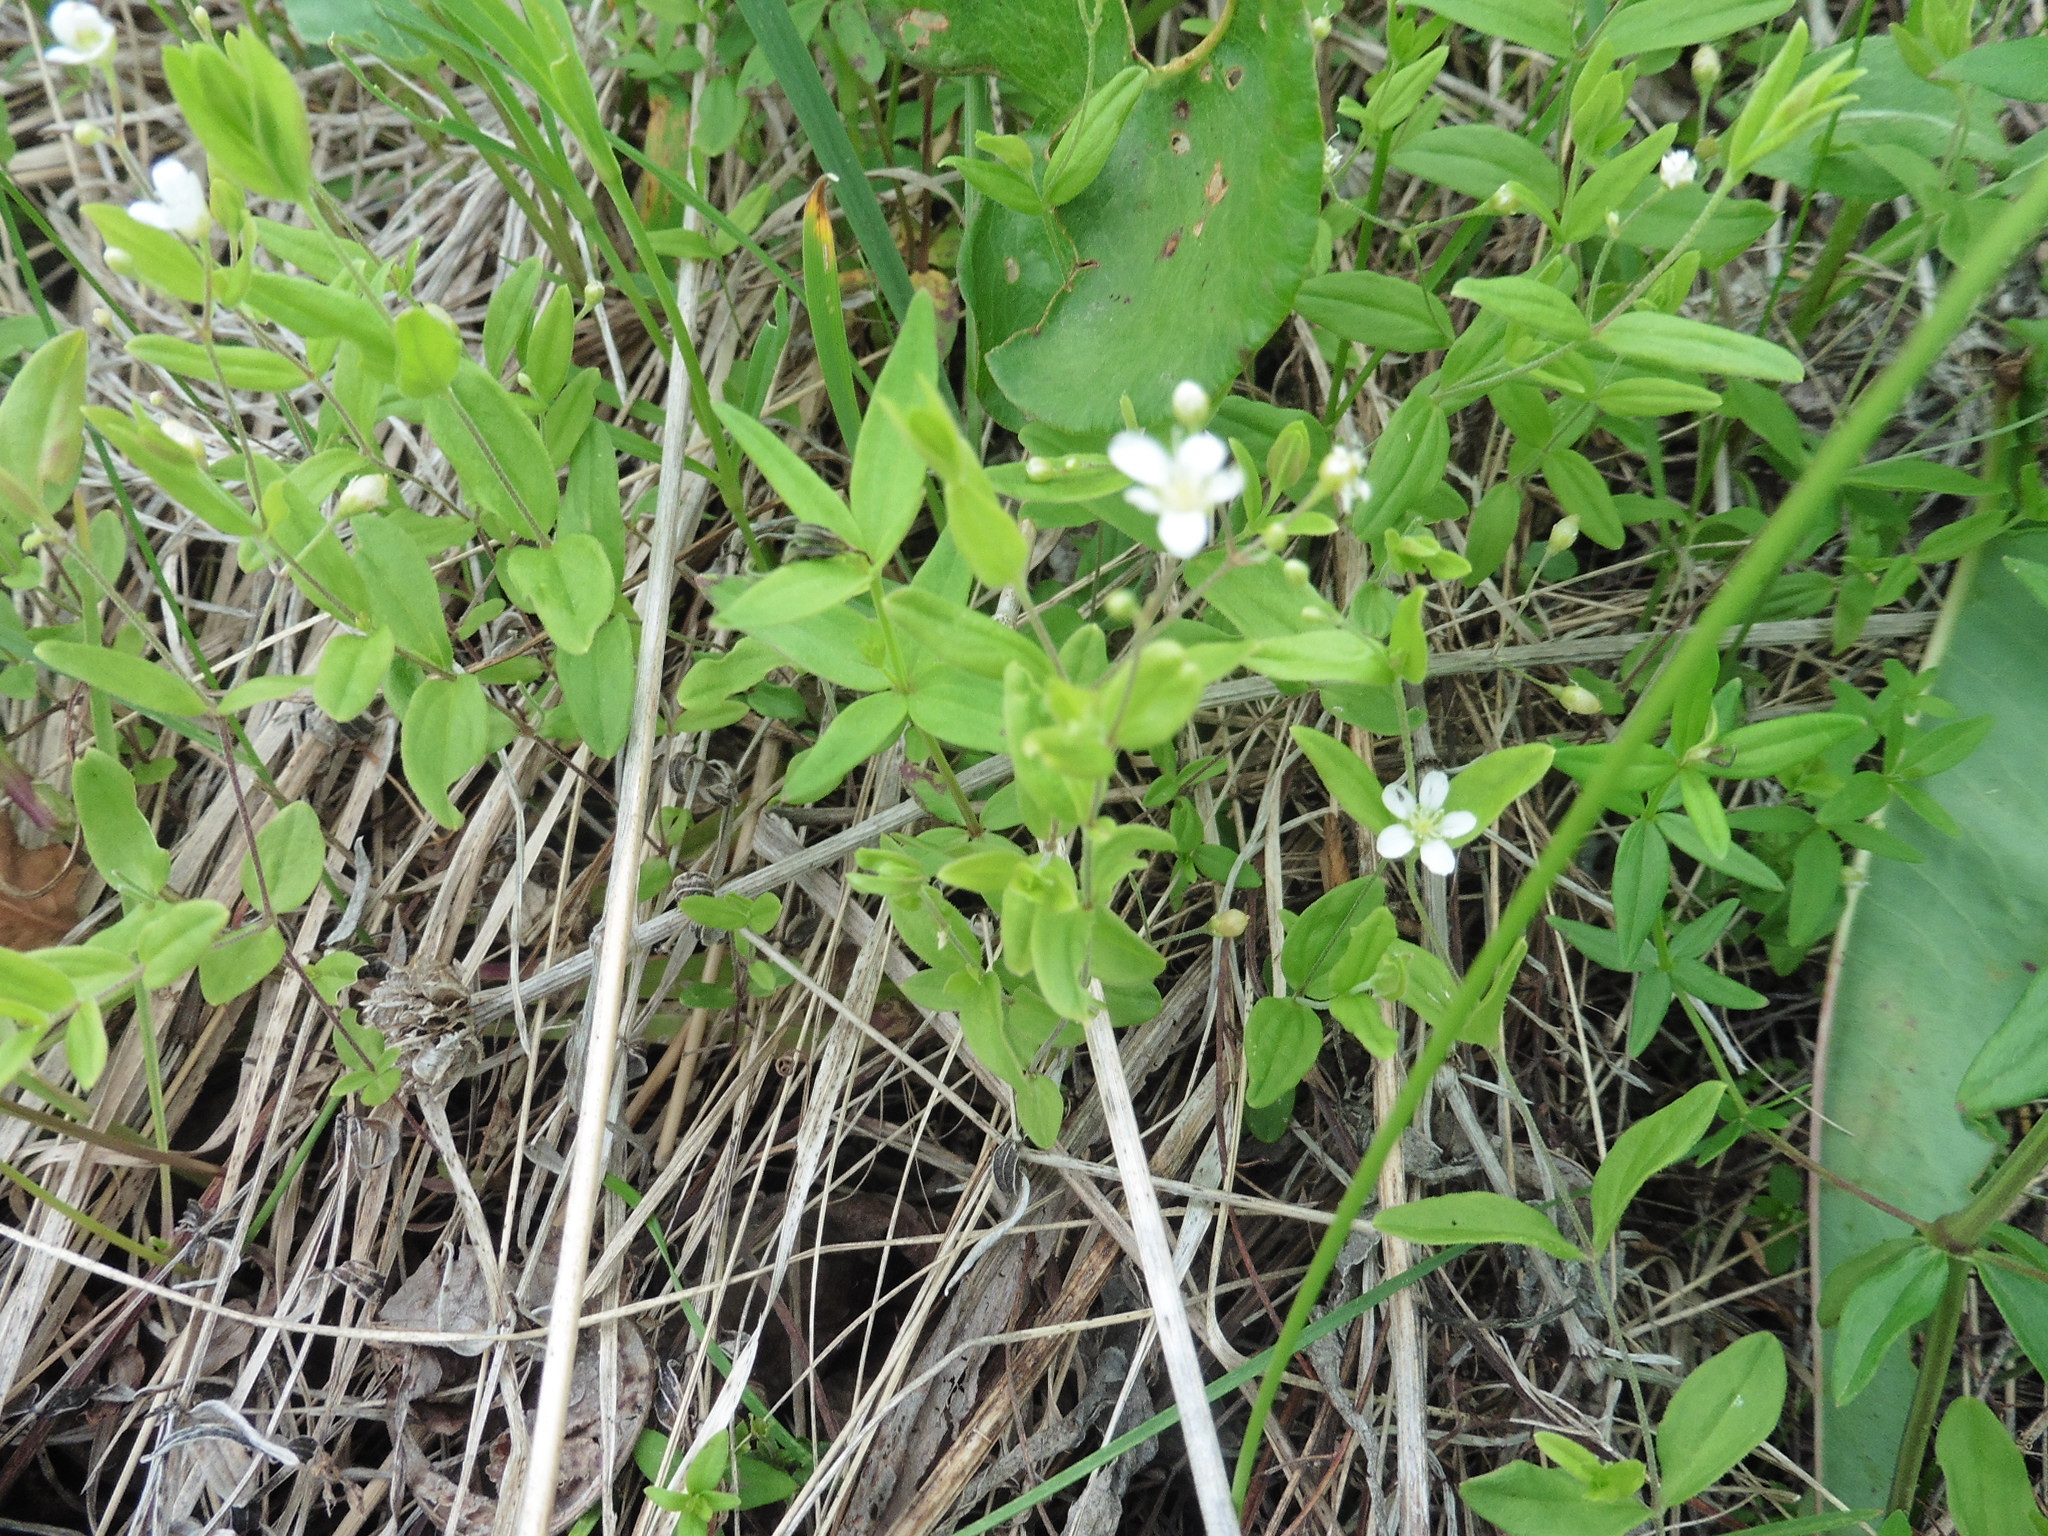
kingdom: Plantae
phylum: Tracheophyta
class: Magnoliopsida
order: Caryophyllales
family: Caryophyllaceae
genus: Moehringia
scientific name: Moehringia lateriflora
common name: Blunt-leaved sandwort
